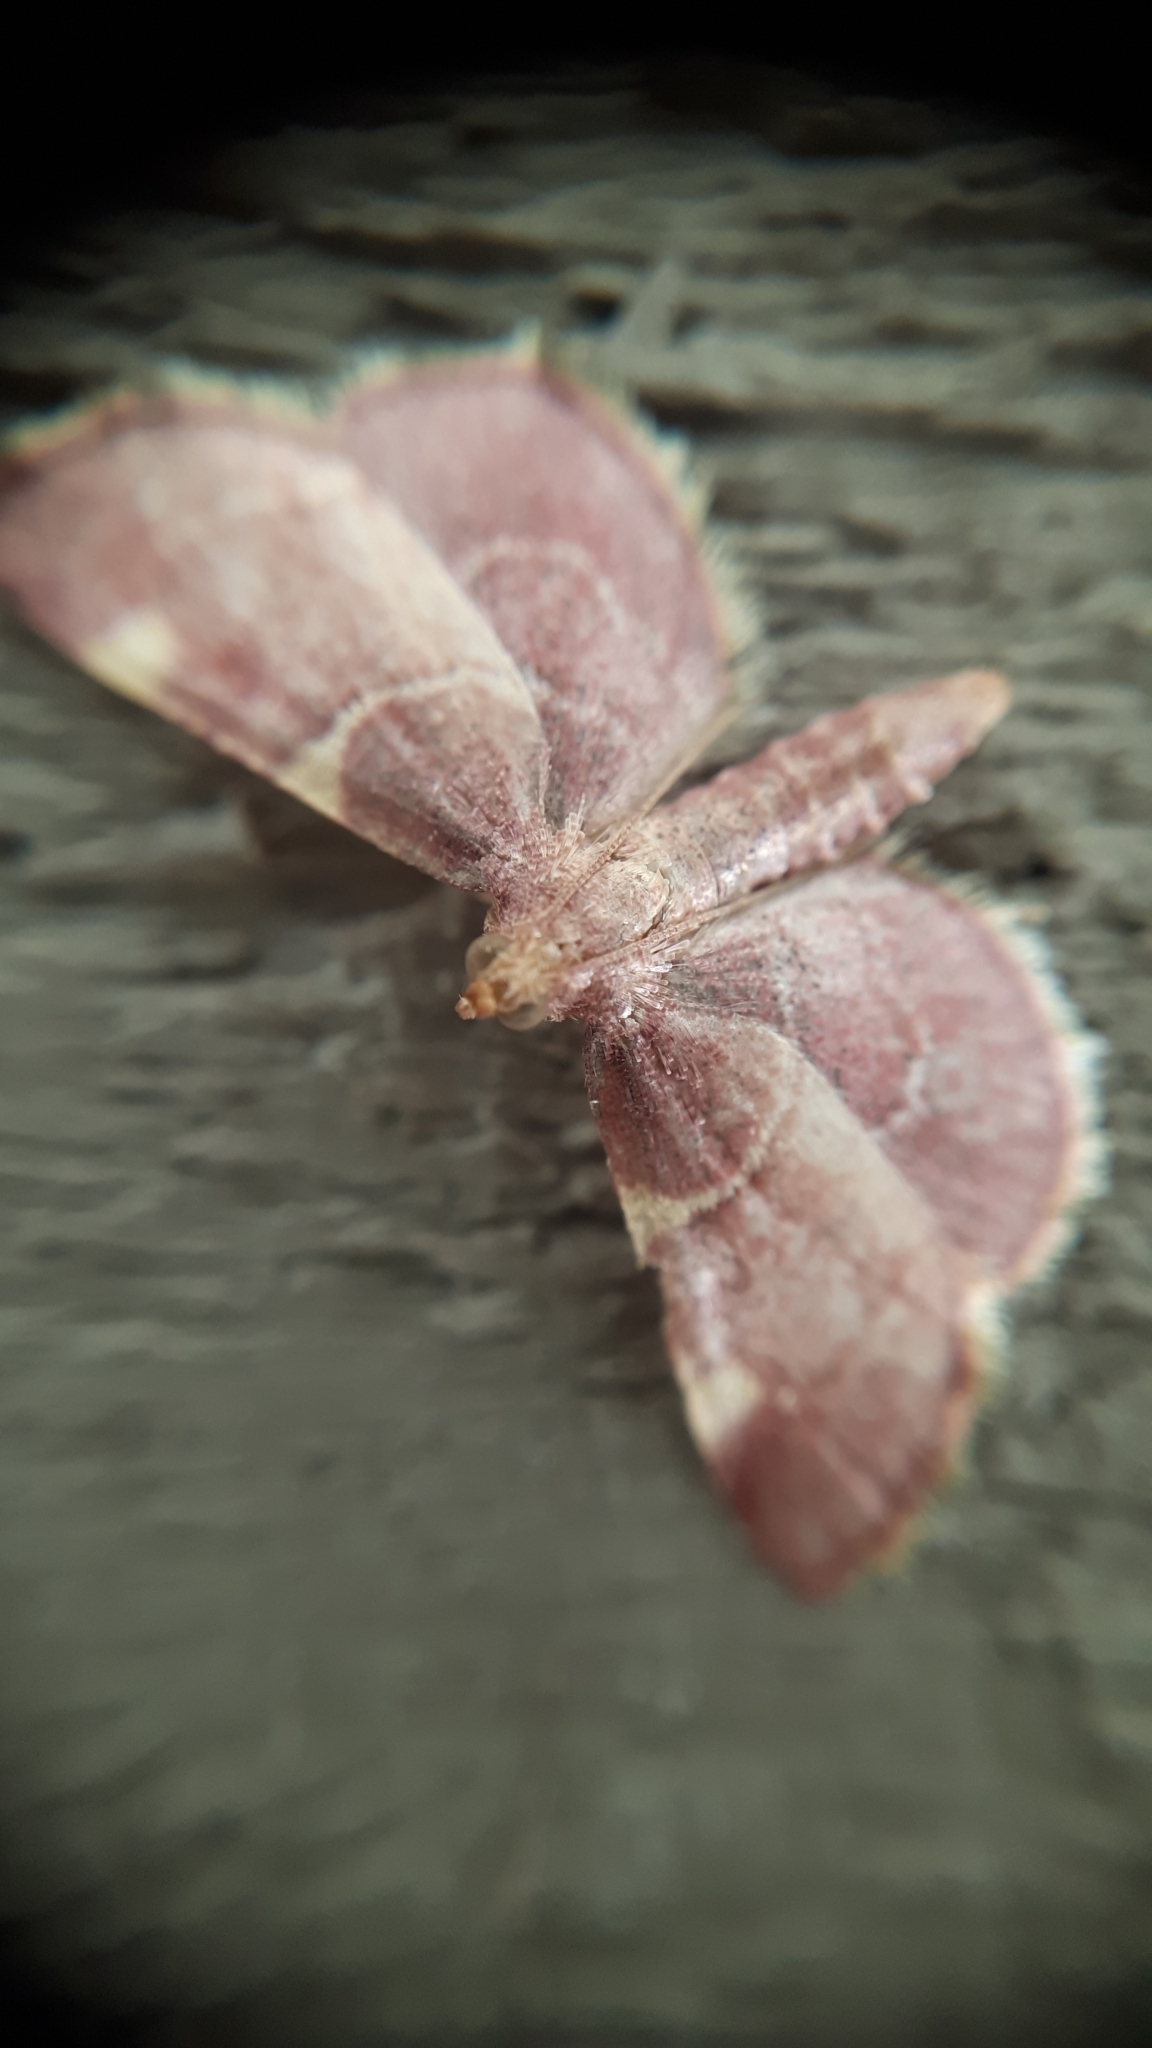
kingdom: Animalia
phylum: Arthropoda
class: Insecta
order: Lepidoptera
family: Pyralidae
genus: Hypsopygia
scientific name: Hypsopygia olinalis
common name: Yellow-fringed dolichomia moth
